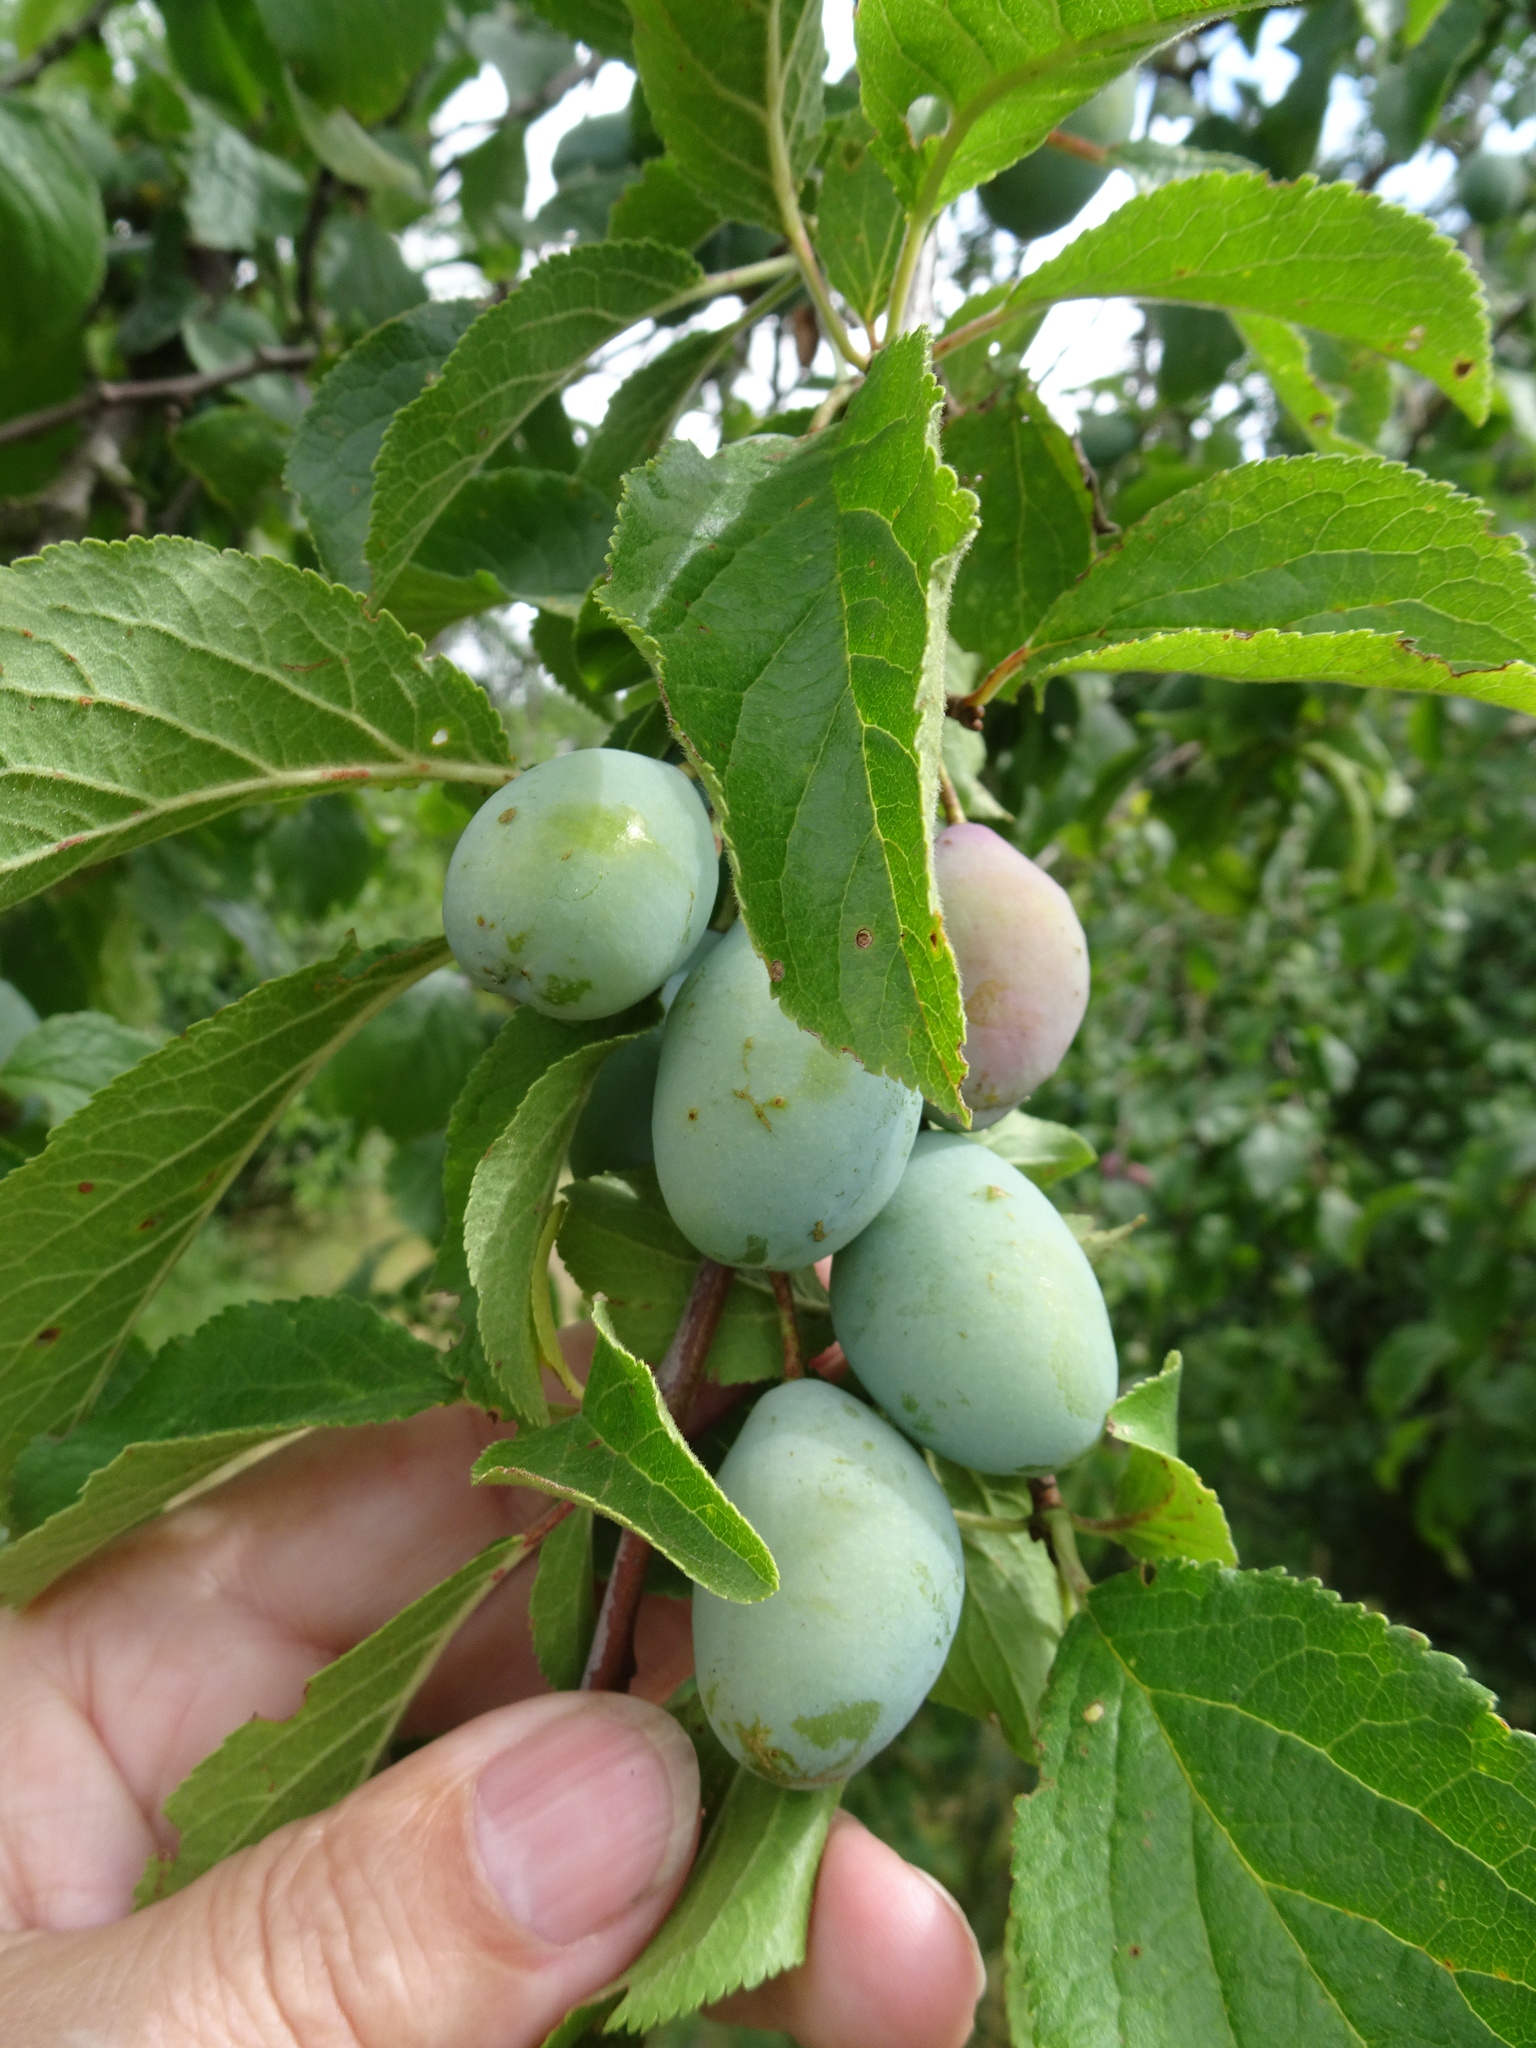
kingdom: Plantae
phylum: Tracheophyta
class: Magnoliopsida
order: Rosales
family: Rosaceae
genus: Prunus
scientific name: Prunus domestica
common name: Wild plum
